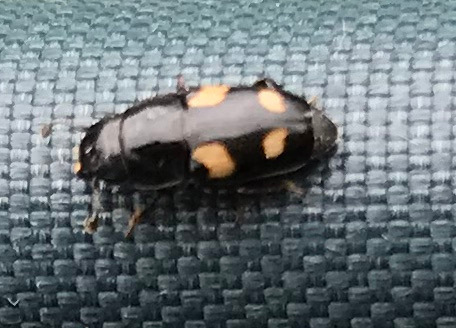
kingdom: Animalia
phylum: Arthropoda
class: Insecta
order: Coleoptera
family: Nitidulidae
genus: Glischrochilus
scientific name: Glischrochilus quadrisignatus
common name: Picnic beetle
